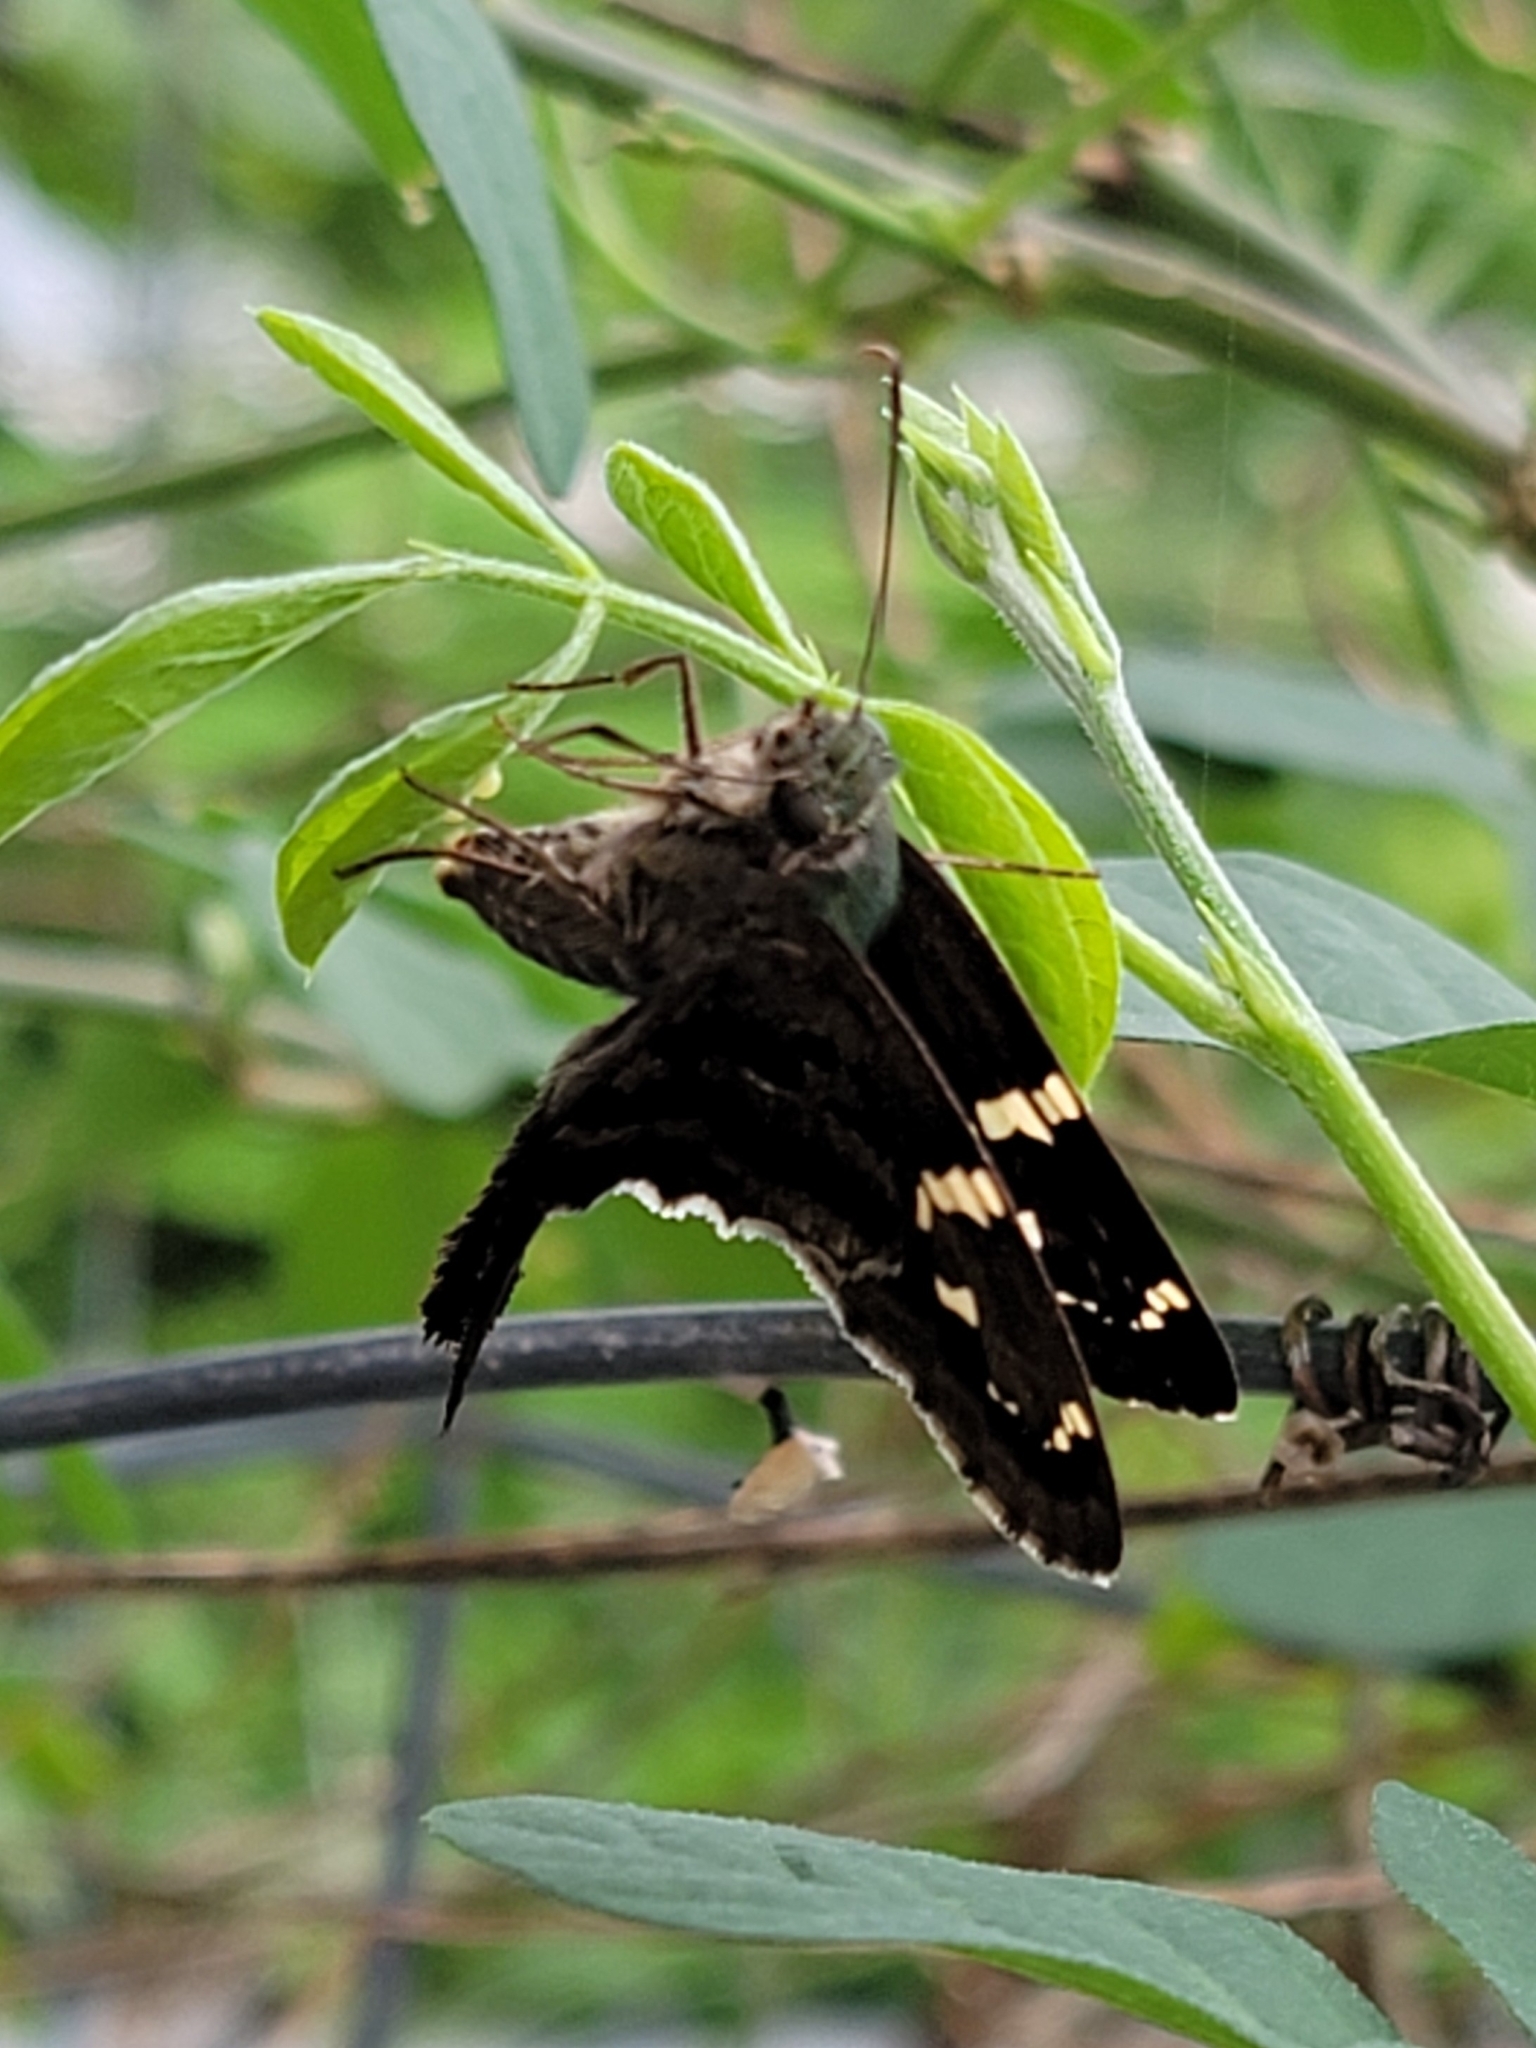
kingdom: Animalia
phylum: Arthropoda
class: Insecta
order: Lepidoptera
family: Hesperiidae
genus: Urbanus
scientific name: Urbanus proteus
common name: Long-tailed skipper
